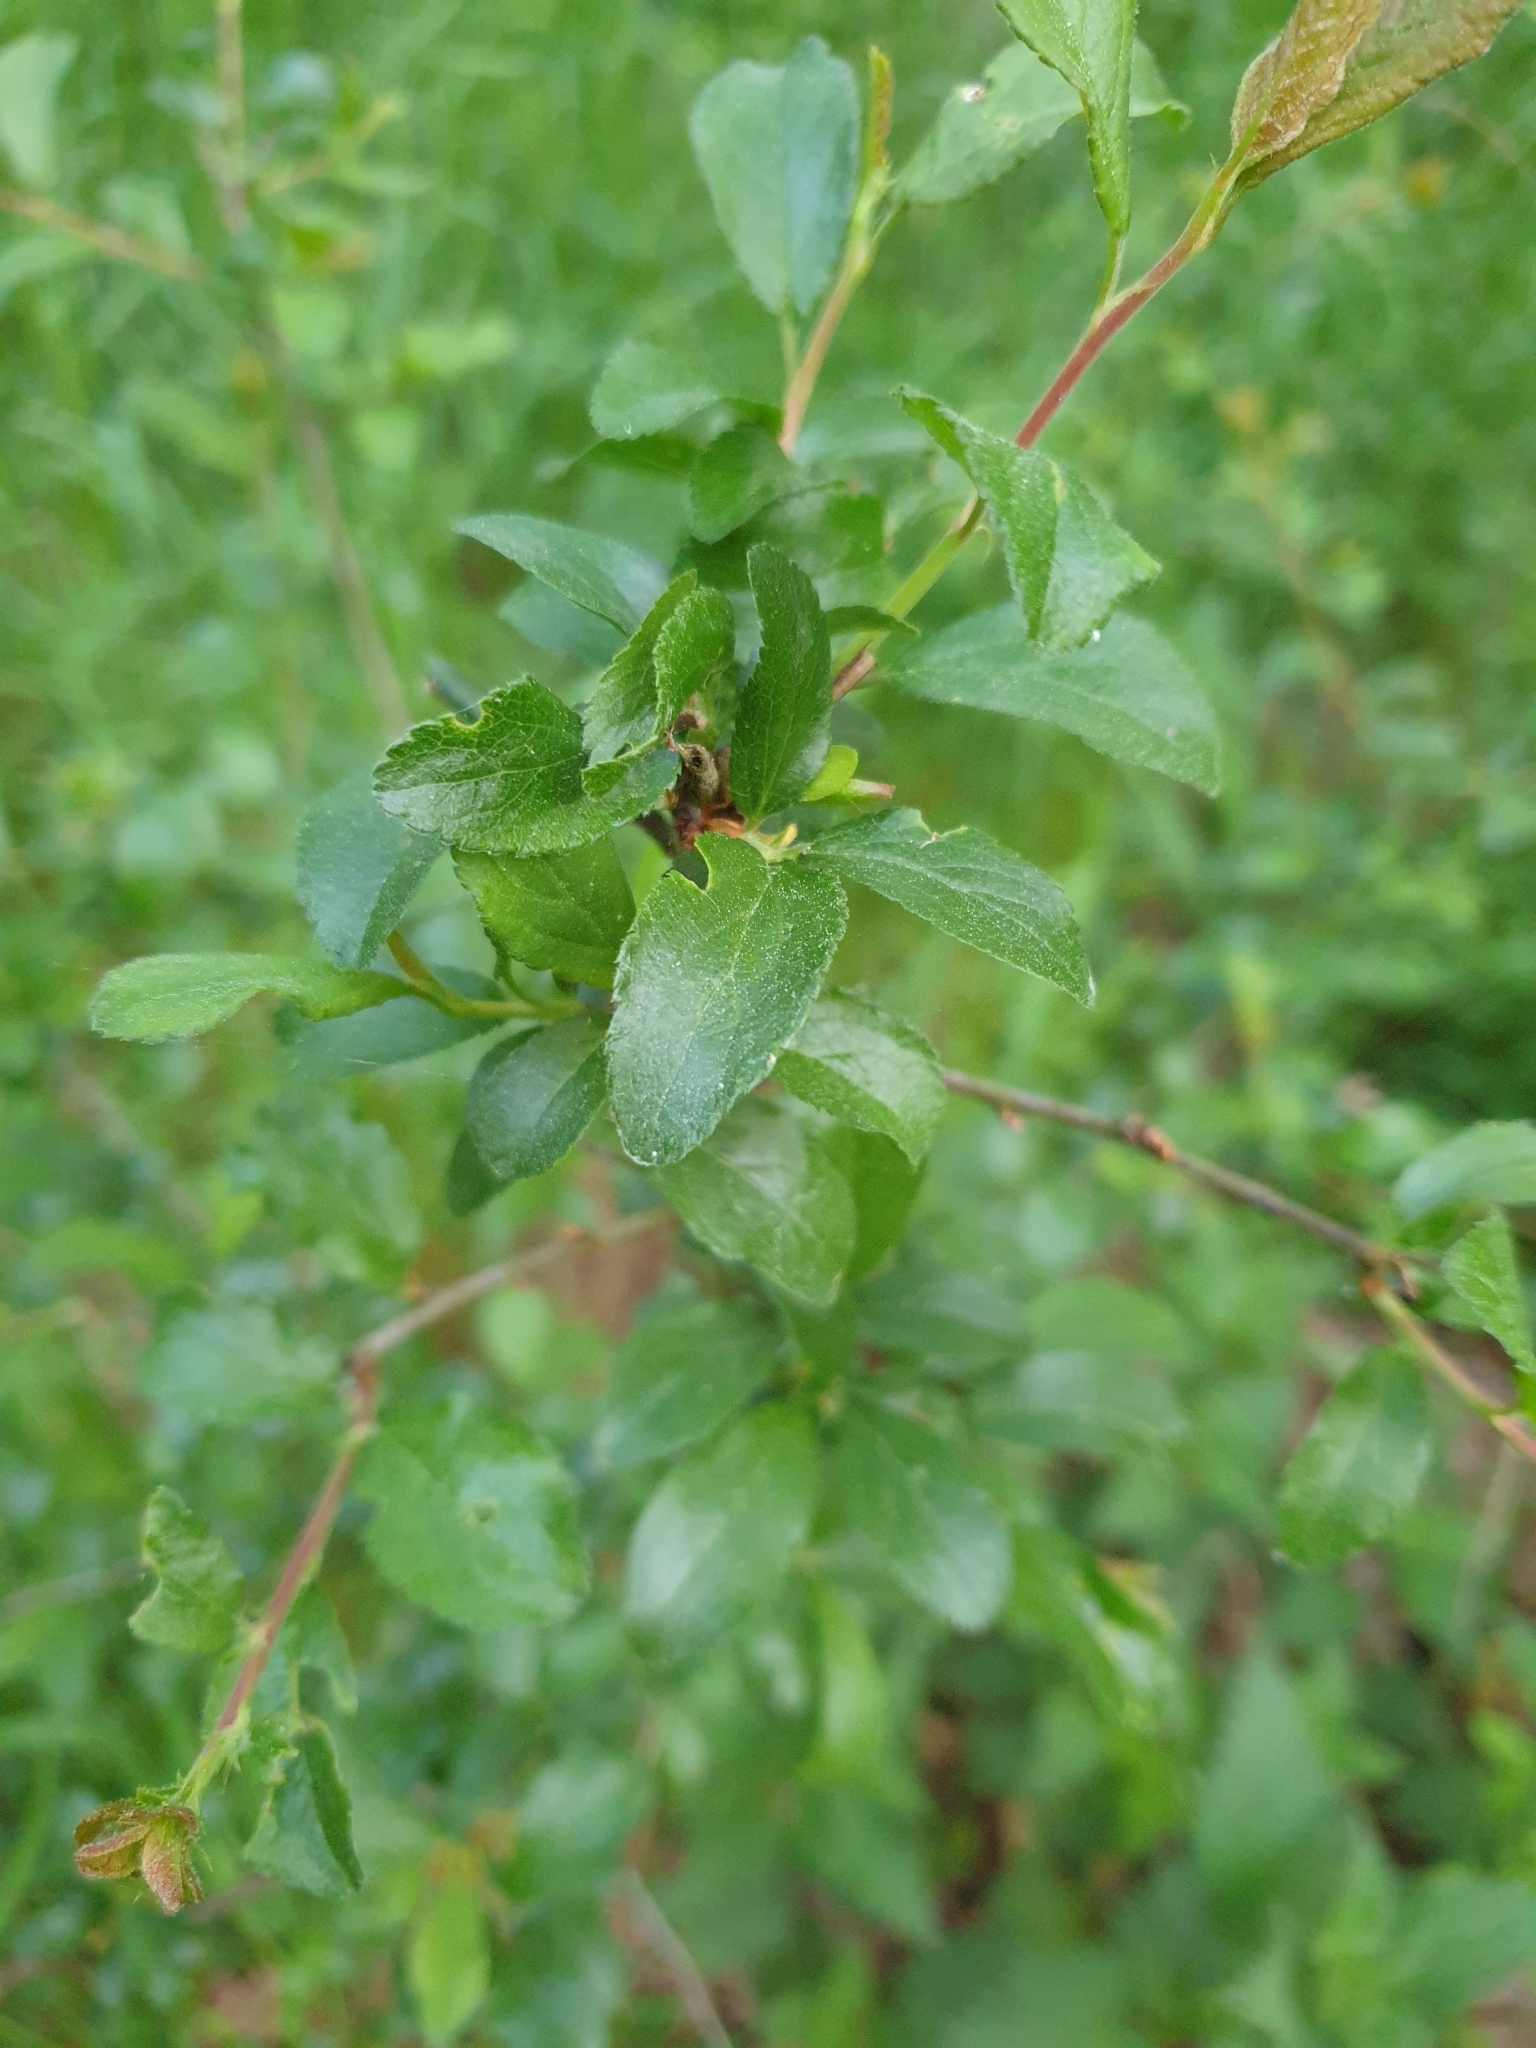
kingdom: Plantae
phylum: Tracheophyta
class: Magnoliopsida
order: Rosales
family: Rosaceae
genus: Prunus
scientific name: Prunus spinosa
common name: Blackthorn
